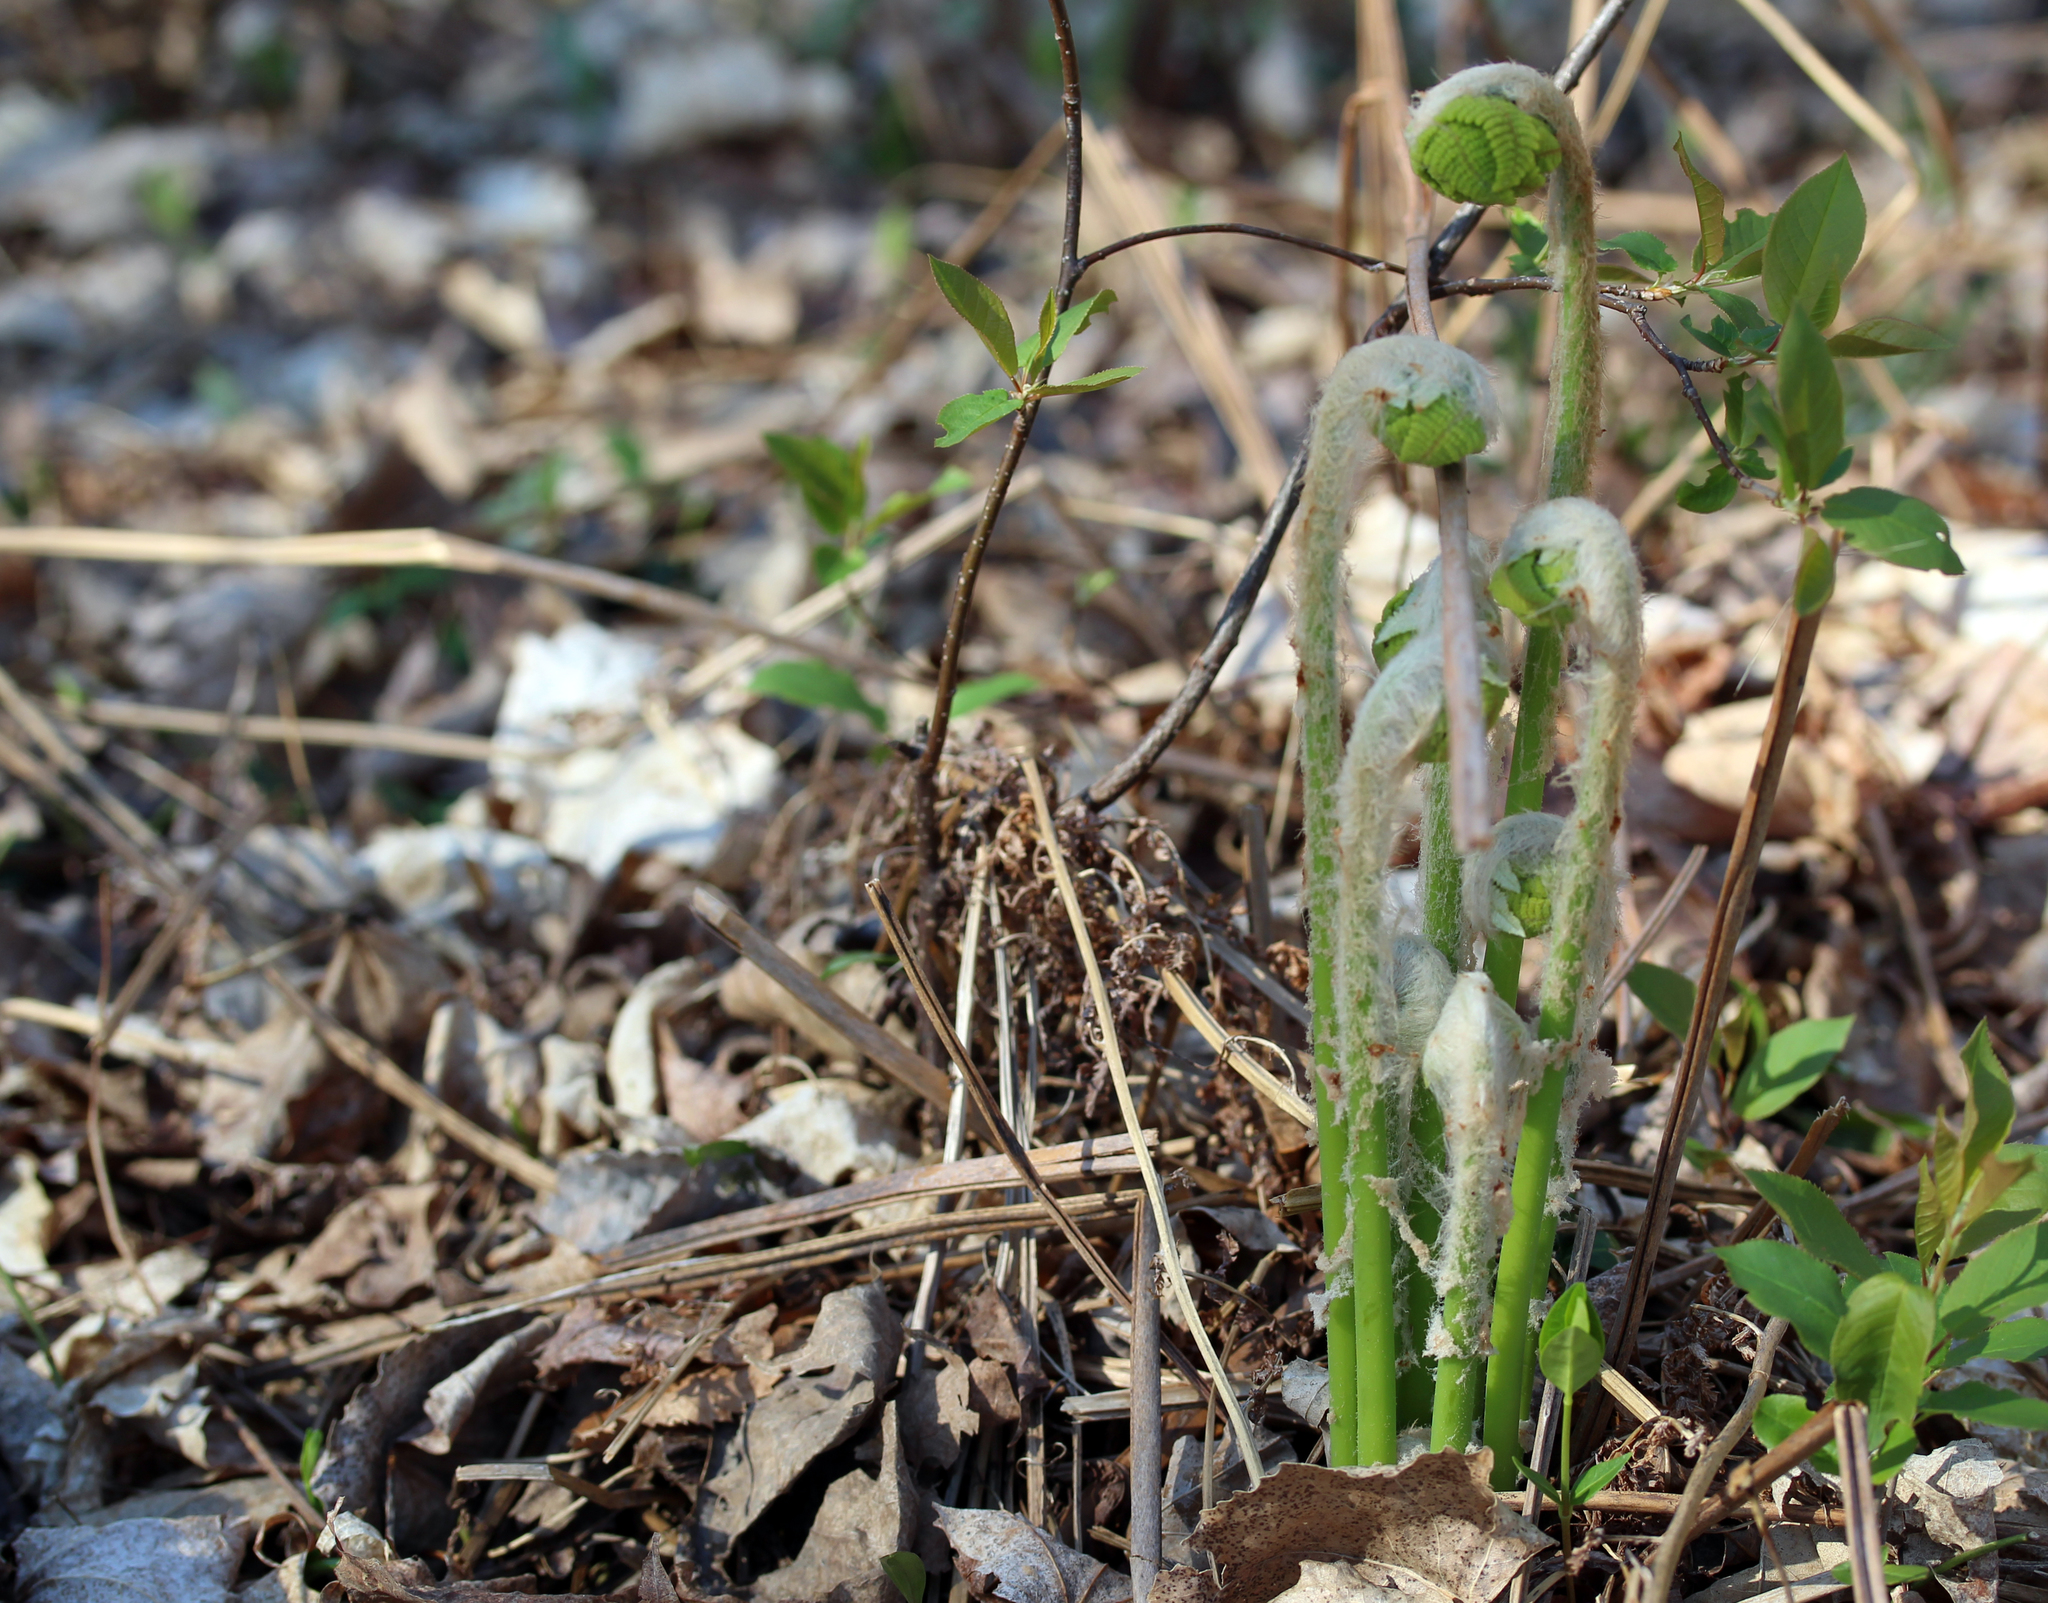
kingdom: Plantae
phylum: Tracheophyta
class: Polypodiopsida
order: Osmundales
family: Osmundaceae
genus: Claytosmunda
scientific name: Claytosmunda claytoniana
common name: Clayton's fern
